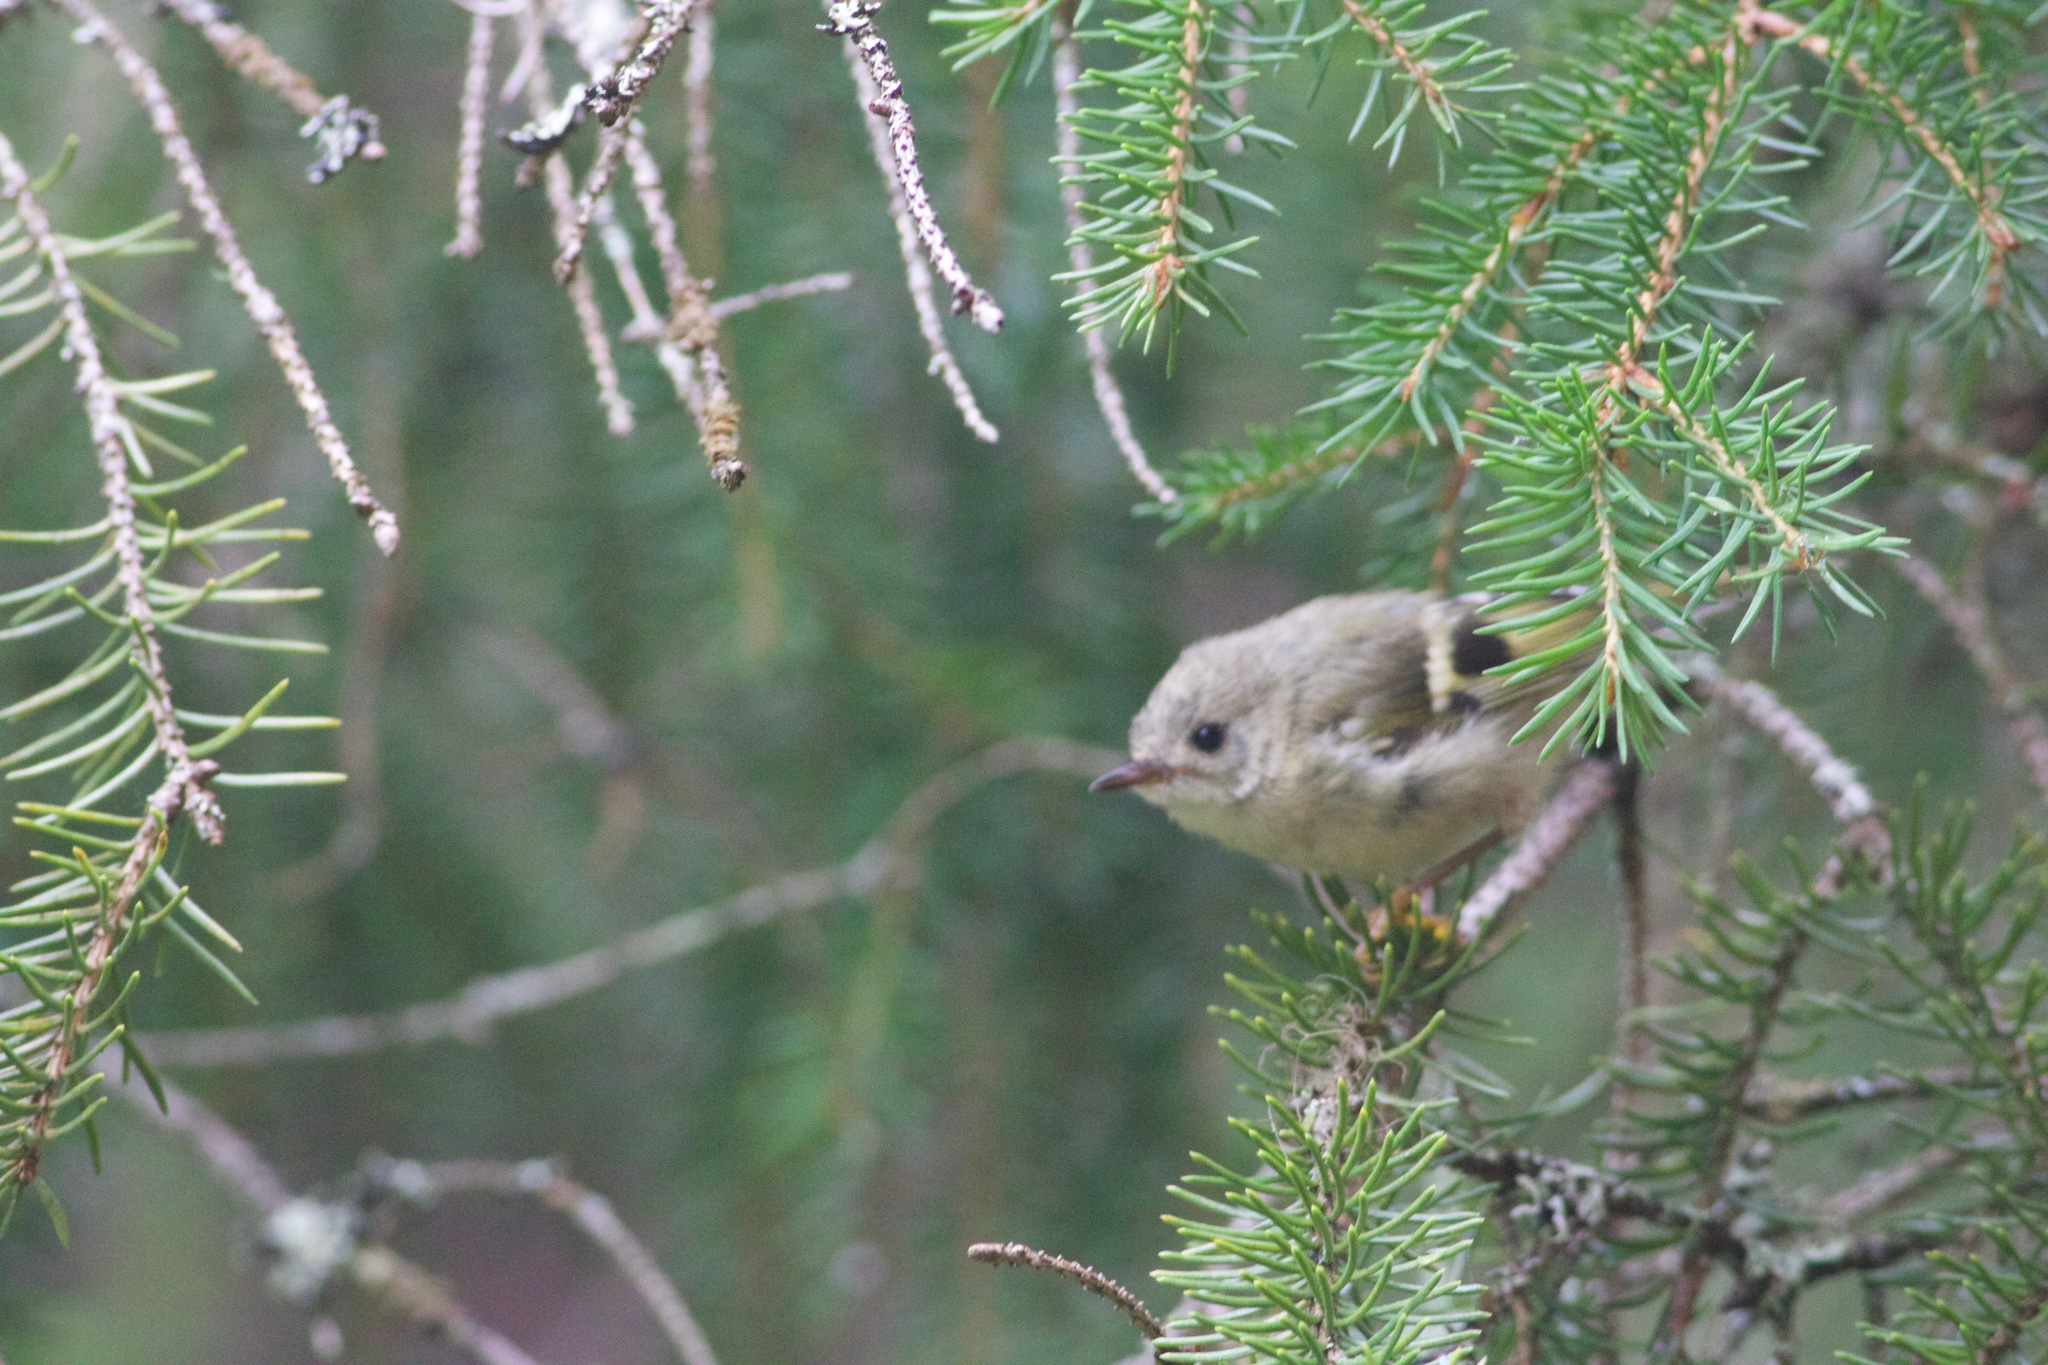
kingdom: Animalia
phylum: Chordata
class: Aves
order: Passeriformes
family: Regulidae
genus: Regulus
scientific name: Regulus regulus
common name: Goldcrest
